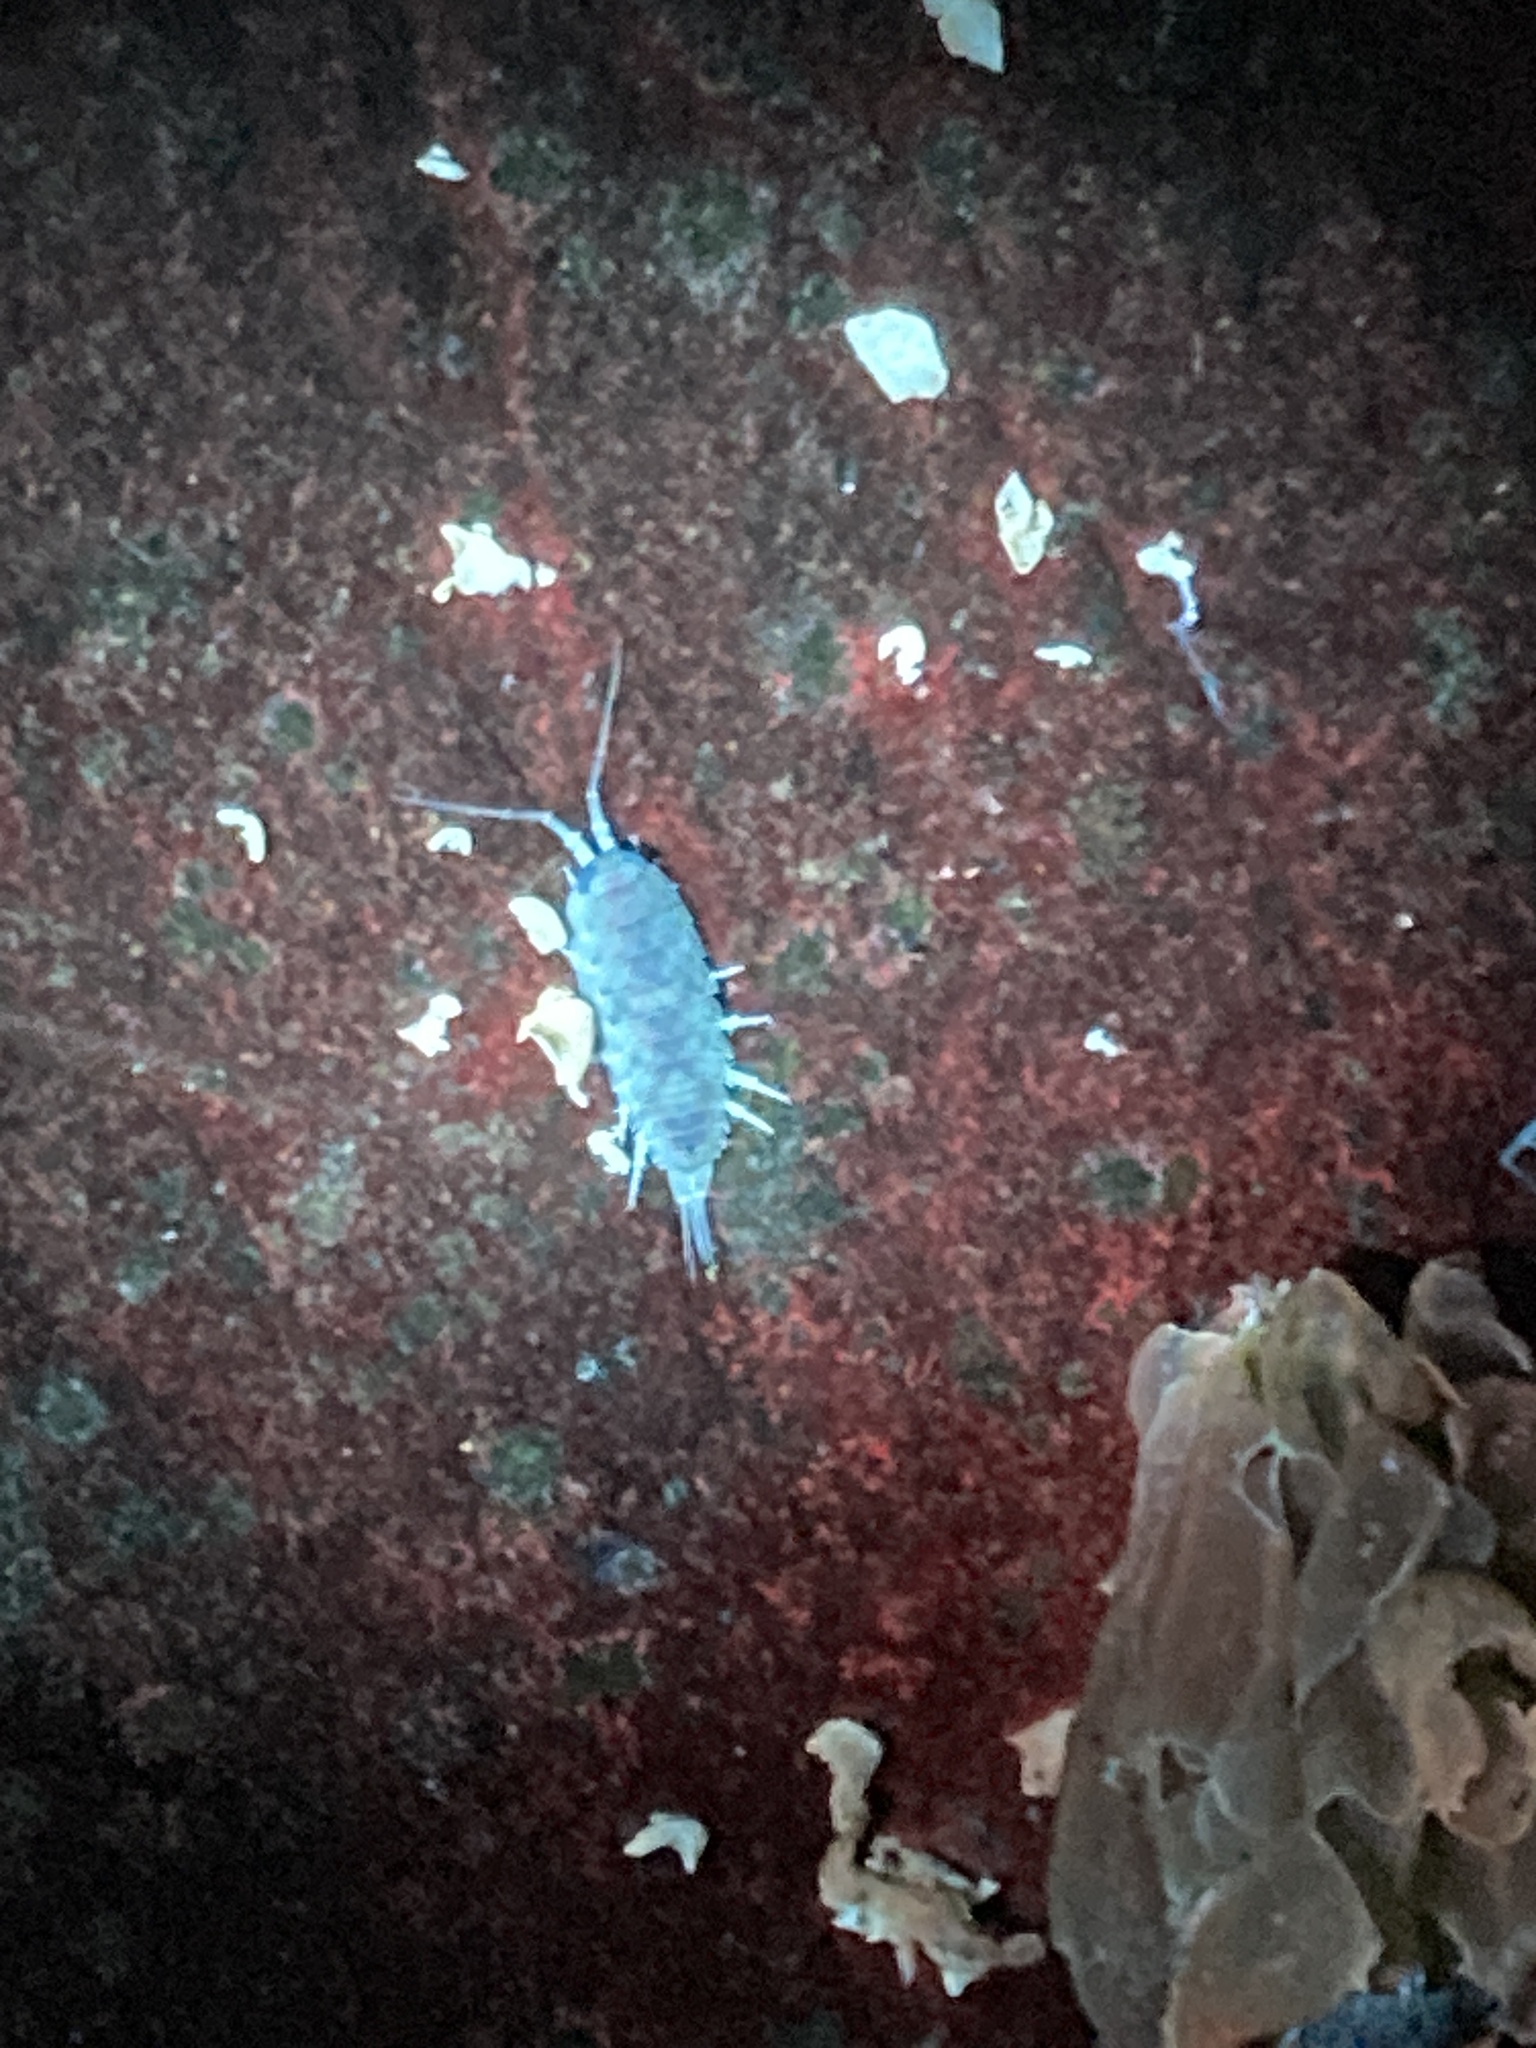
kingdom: Animalia
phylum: Arthropoda
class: Malacostraca
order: Isopoda
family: Ligiidae
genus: Ligia
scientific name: Ligia occidentalis
